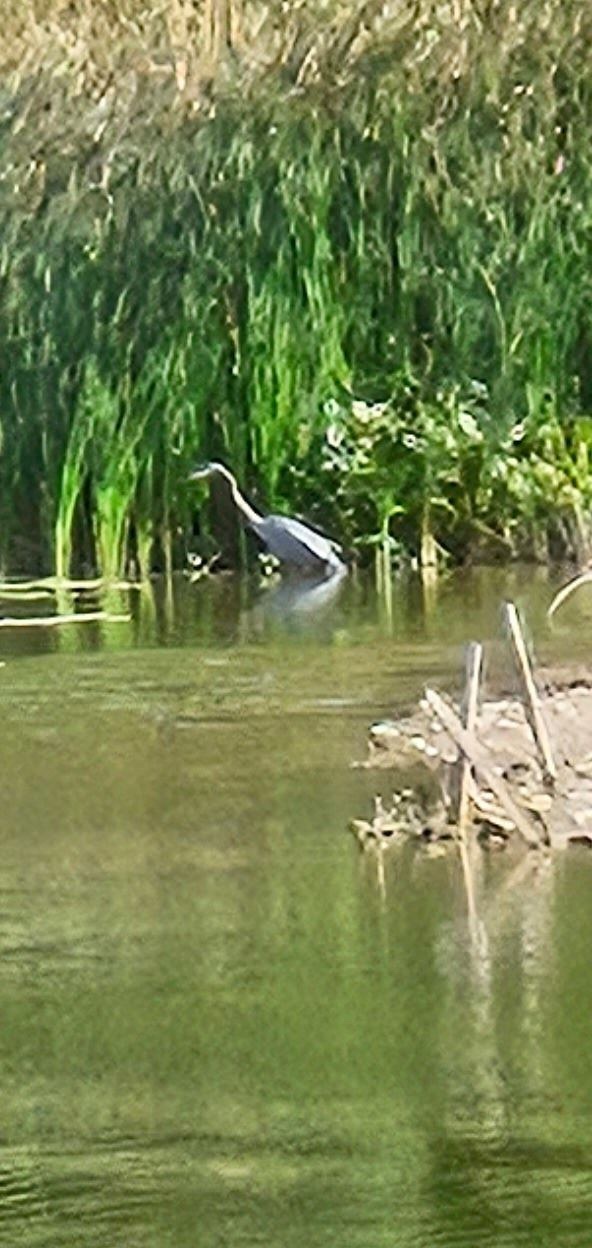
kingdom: Animalia
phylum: Chordata
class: Aves
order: Pelecaniformes
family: Ardeidae
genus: Ardea
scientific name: Ardea herodias
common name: Great blue heron
